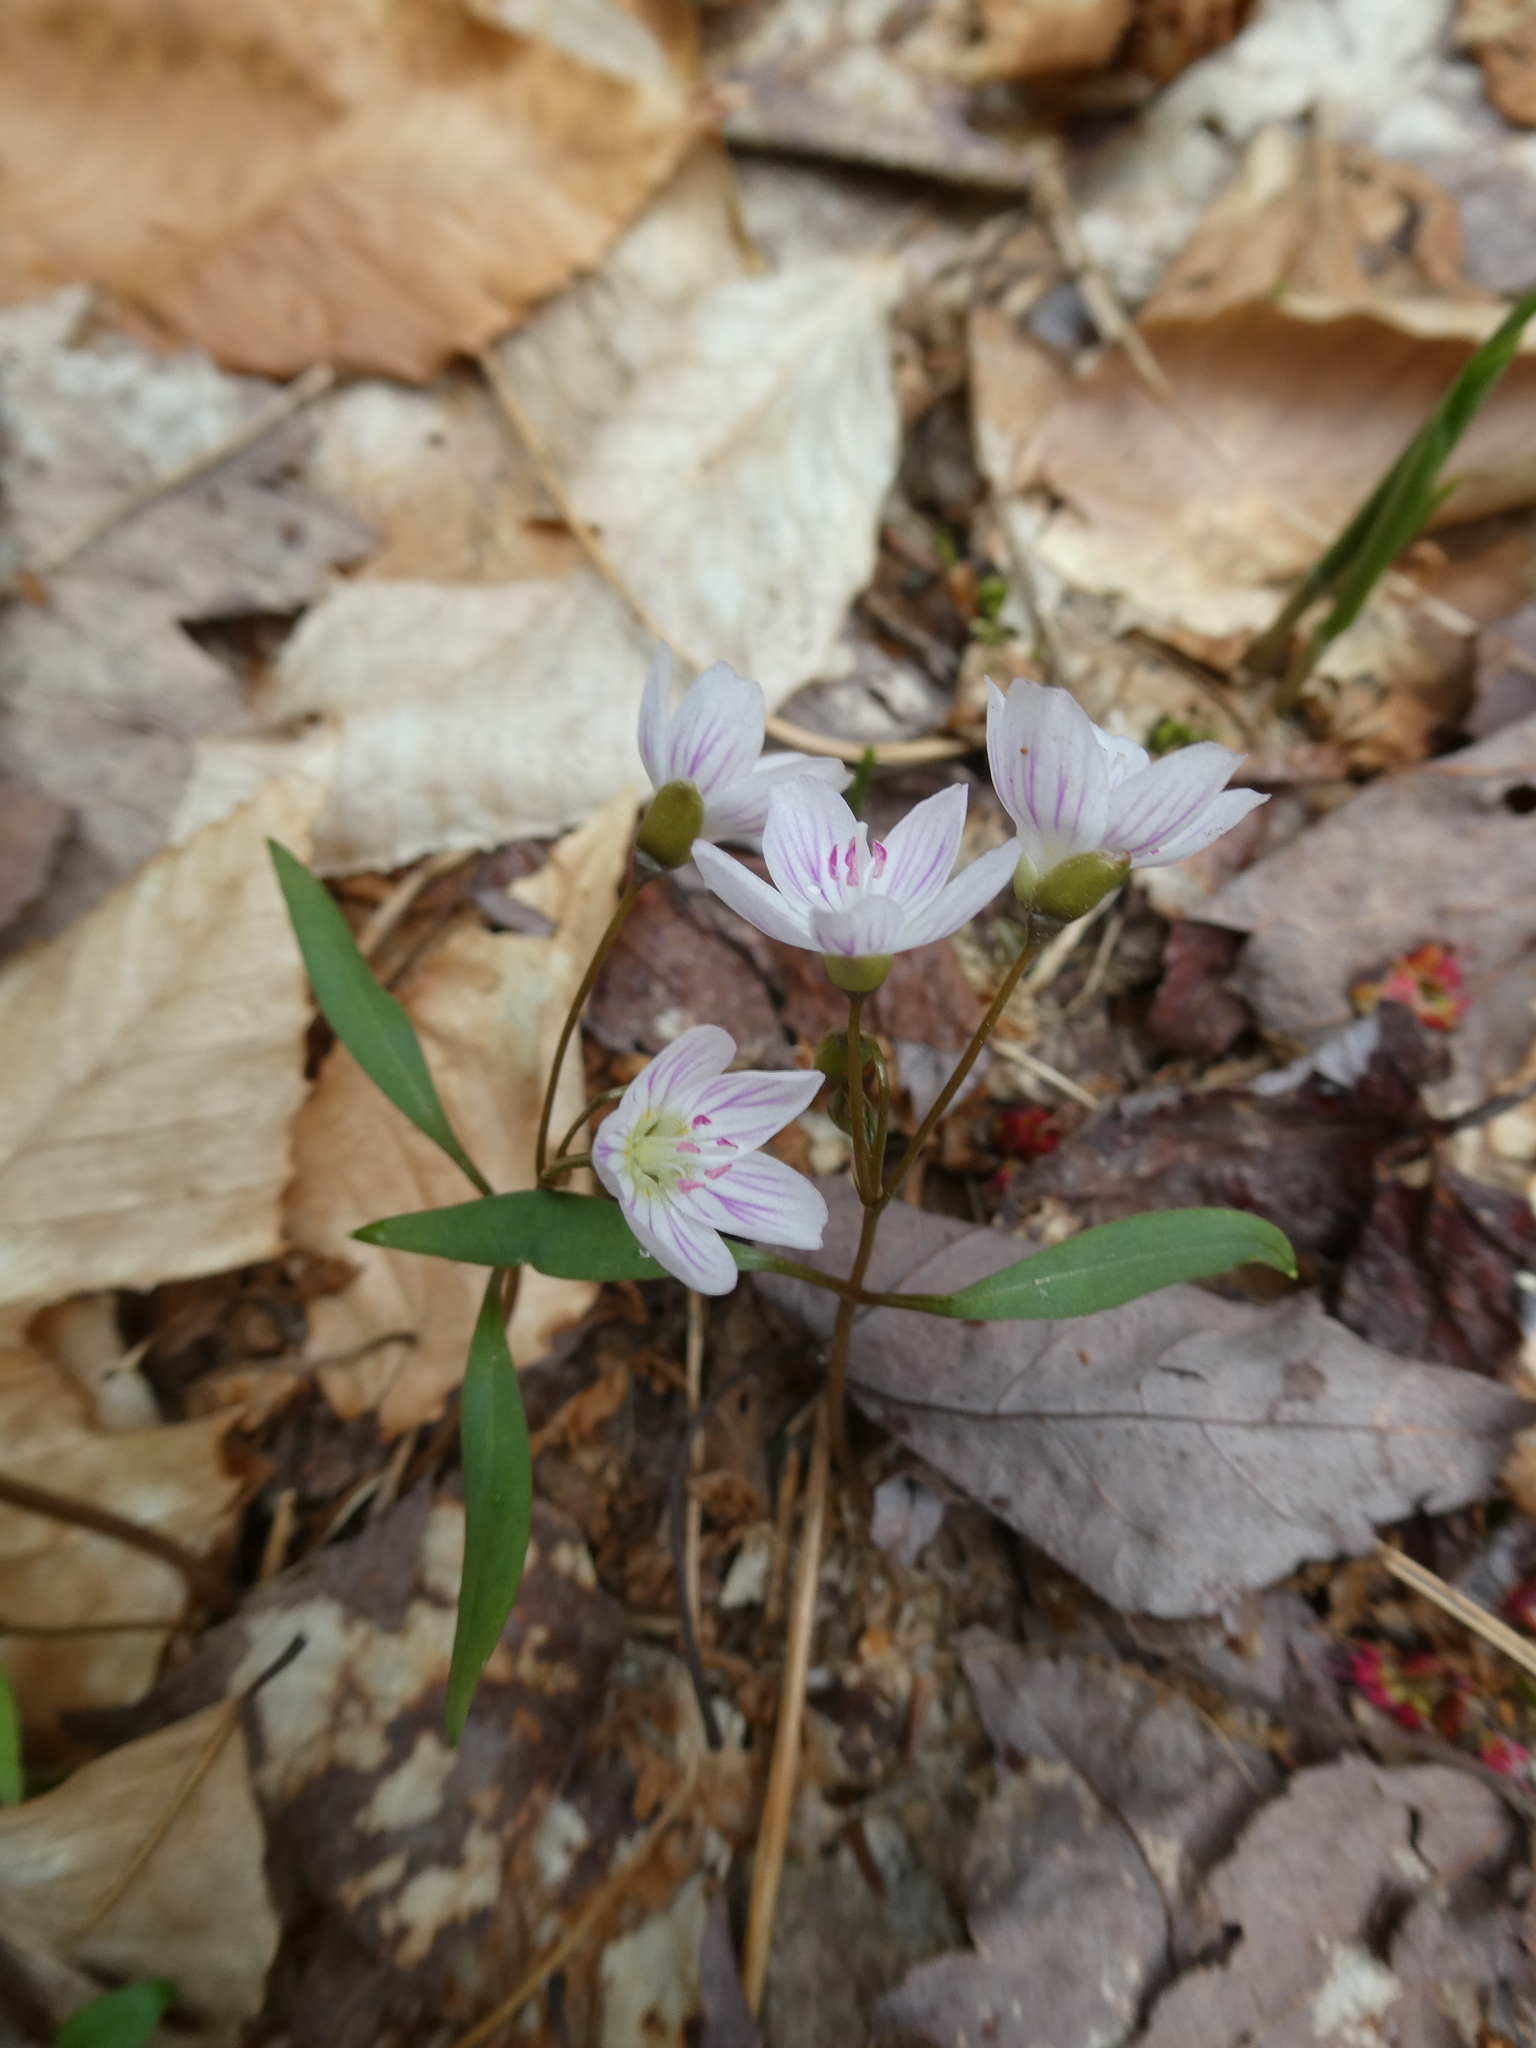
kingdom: Plantae
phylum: Tracheophyta
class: Magnoliopsida
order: Caryophyllales
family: Montiaceae
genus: Claytonia
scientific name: Claytonia caroliniana
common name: Carolina spring beauty
